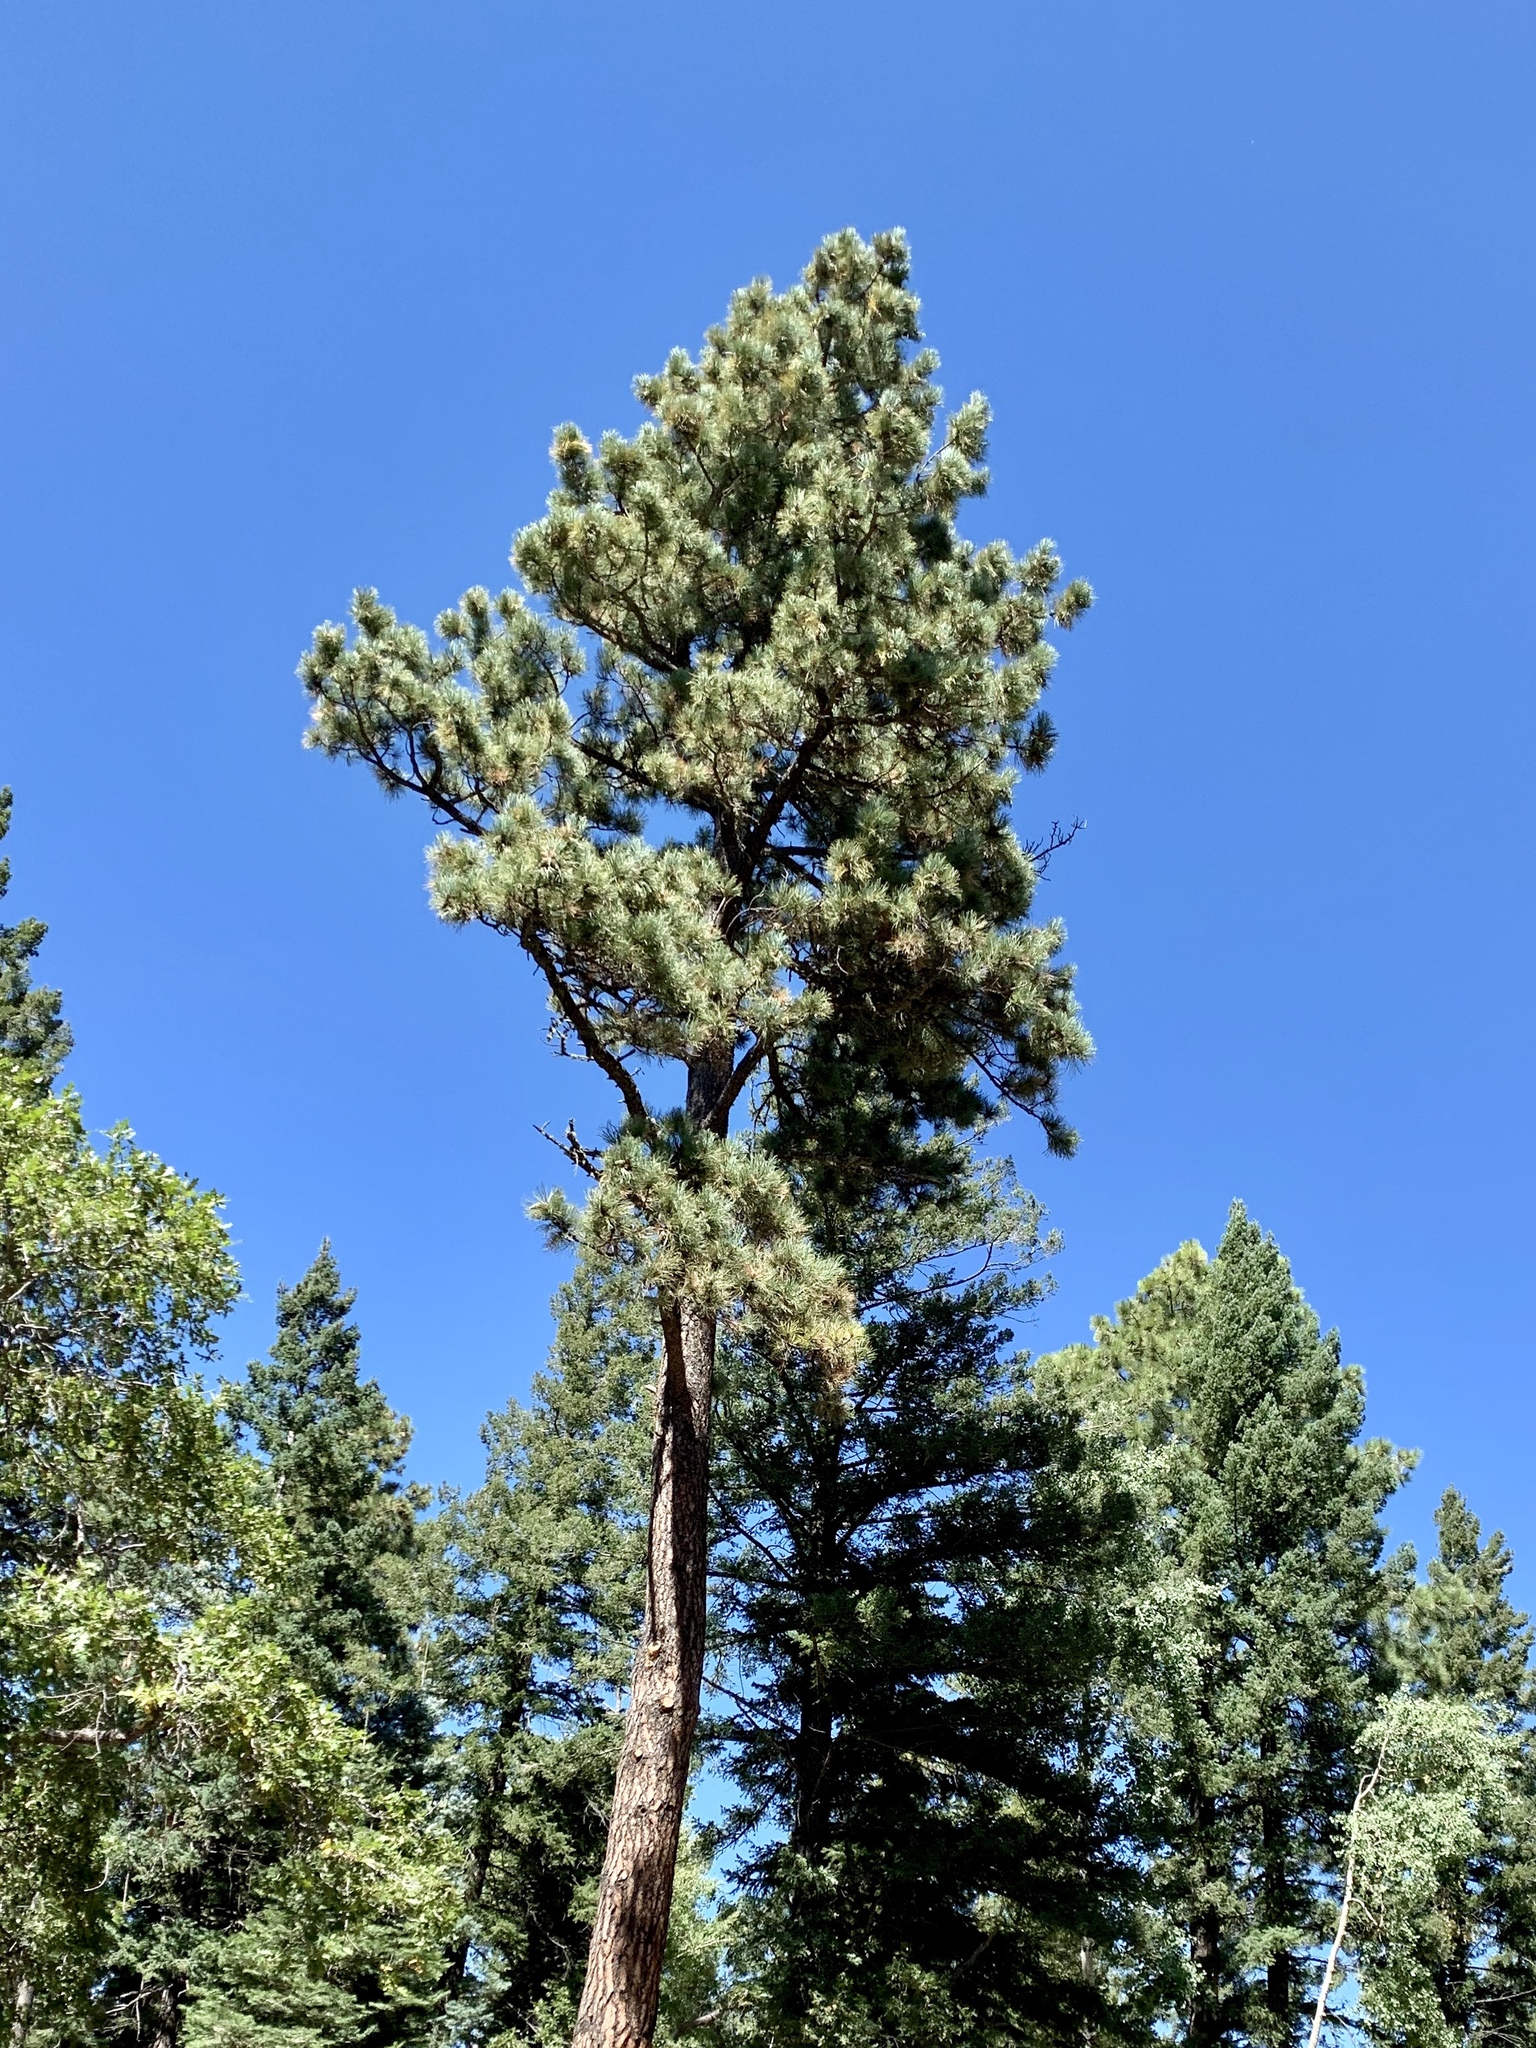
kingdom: Plantae
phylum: Tracheophyta
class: Pinopsida
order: Pinales
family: Pinaceae
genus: Pinus
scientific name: Pinus ponderosa
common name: Western yellow-pine
